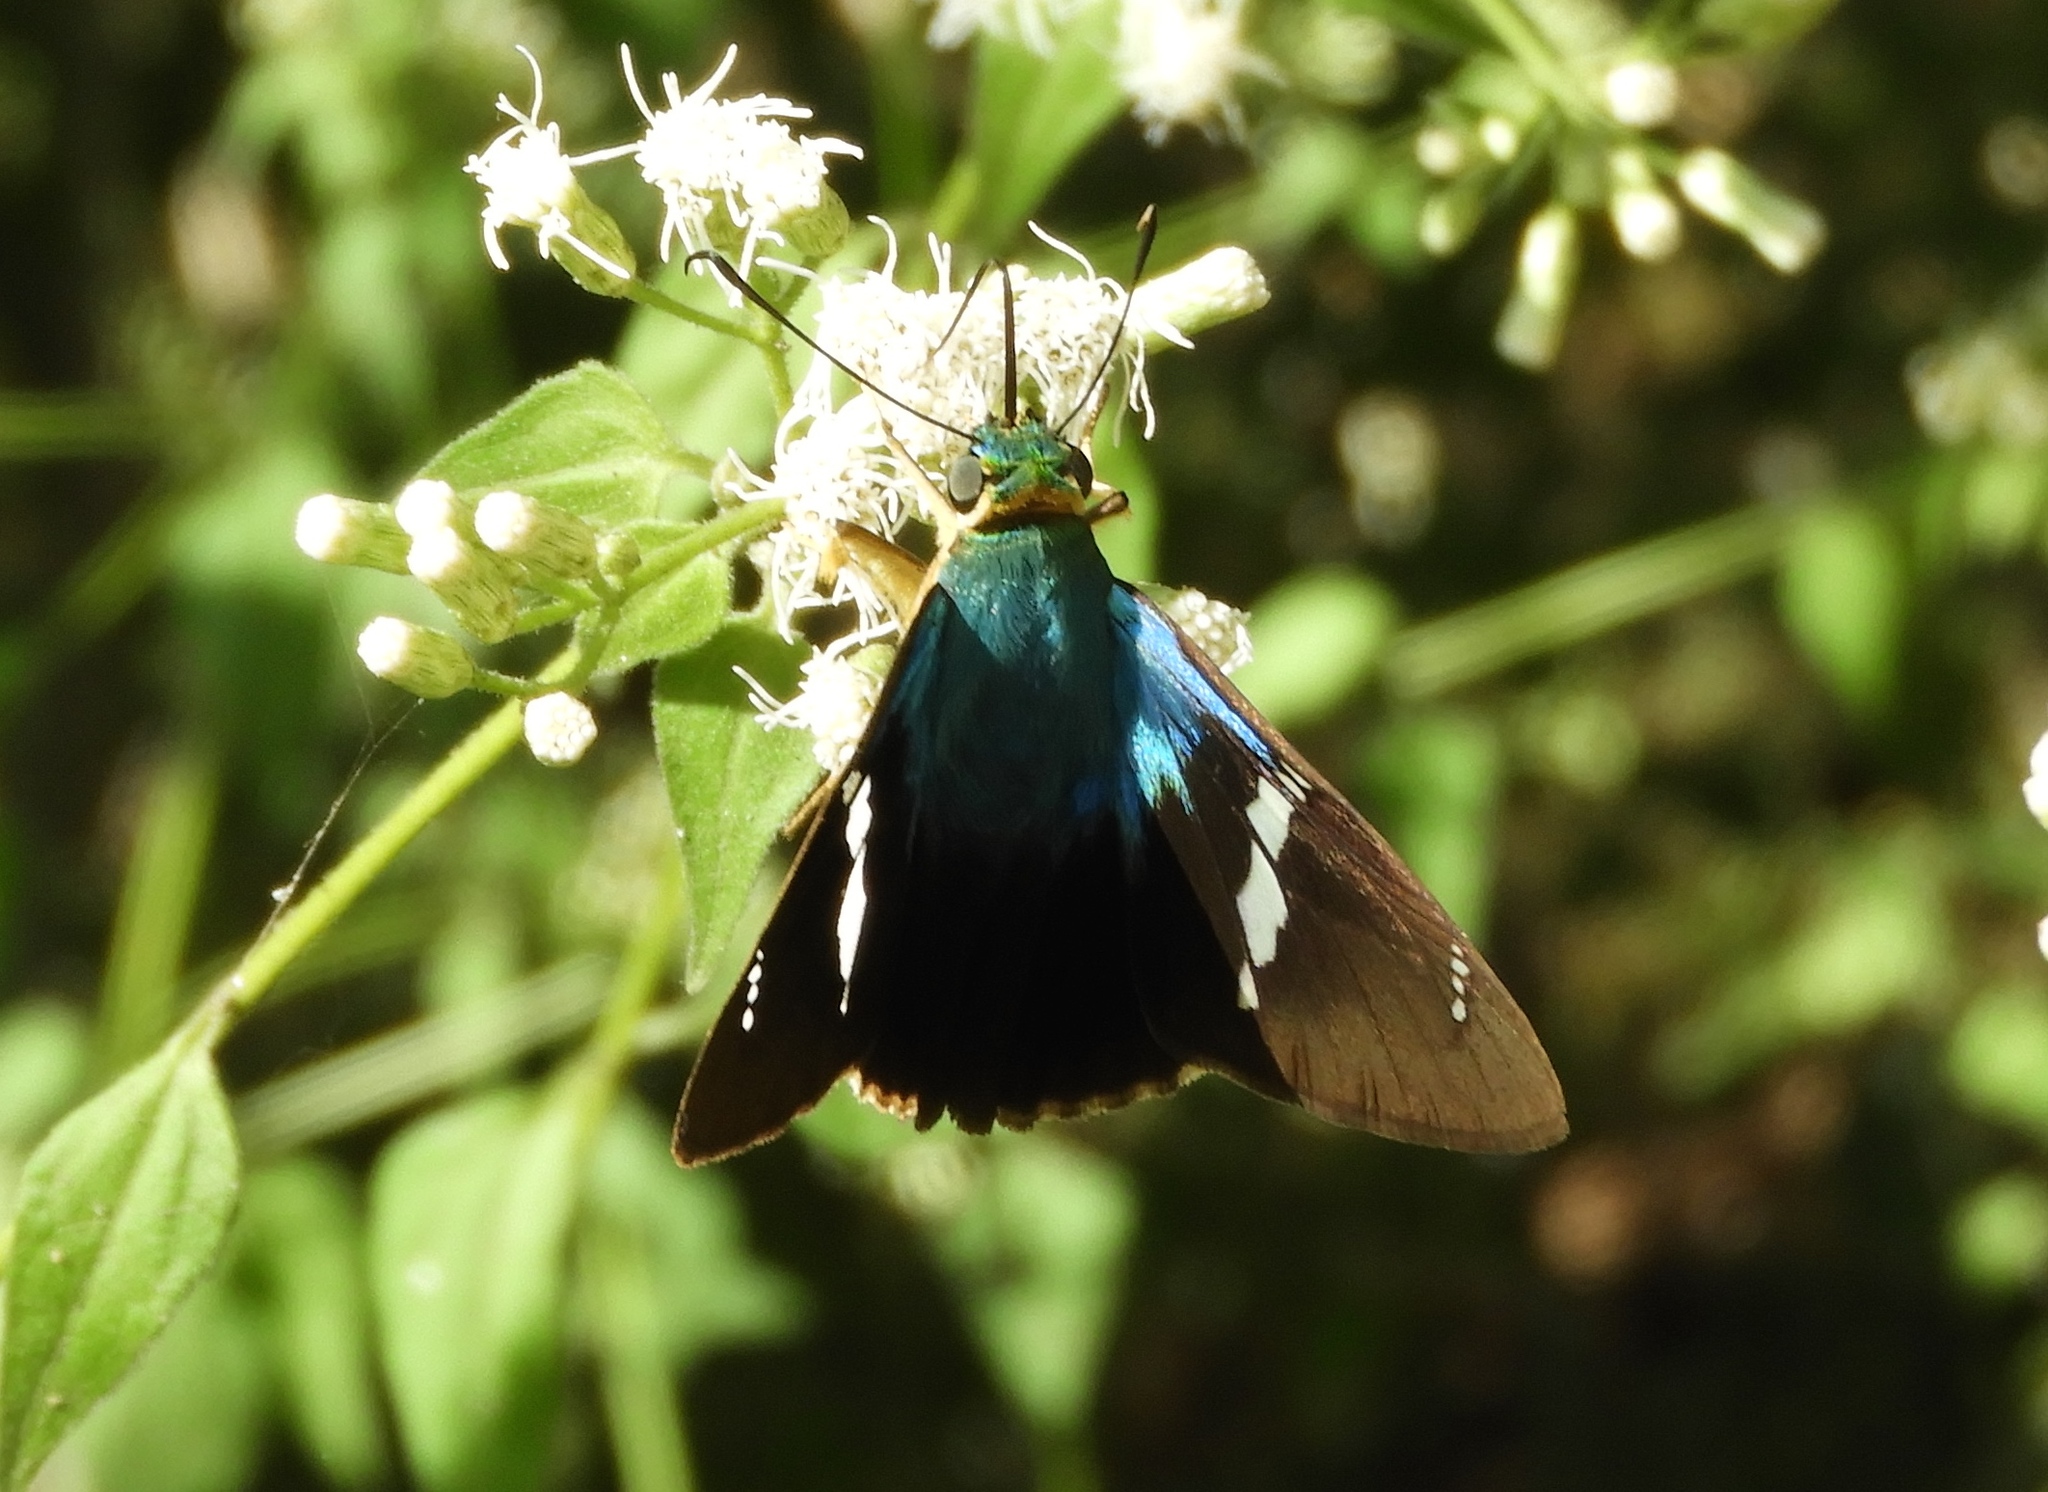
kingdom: Animalia
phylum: Arthropoda
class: Insecta
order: Lepidoptera
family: Hesperiidae
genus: Astraptes
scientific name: Astraptes fulgerator
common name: Two-barred flasher
